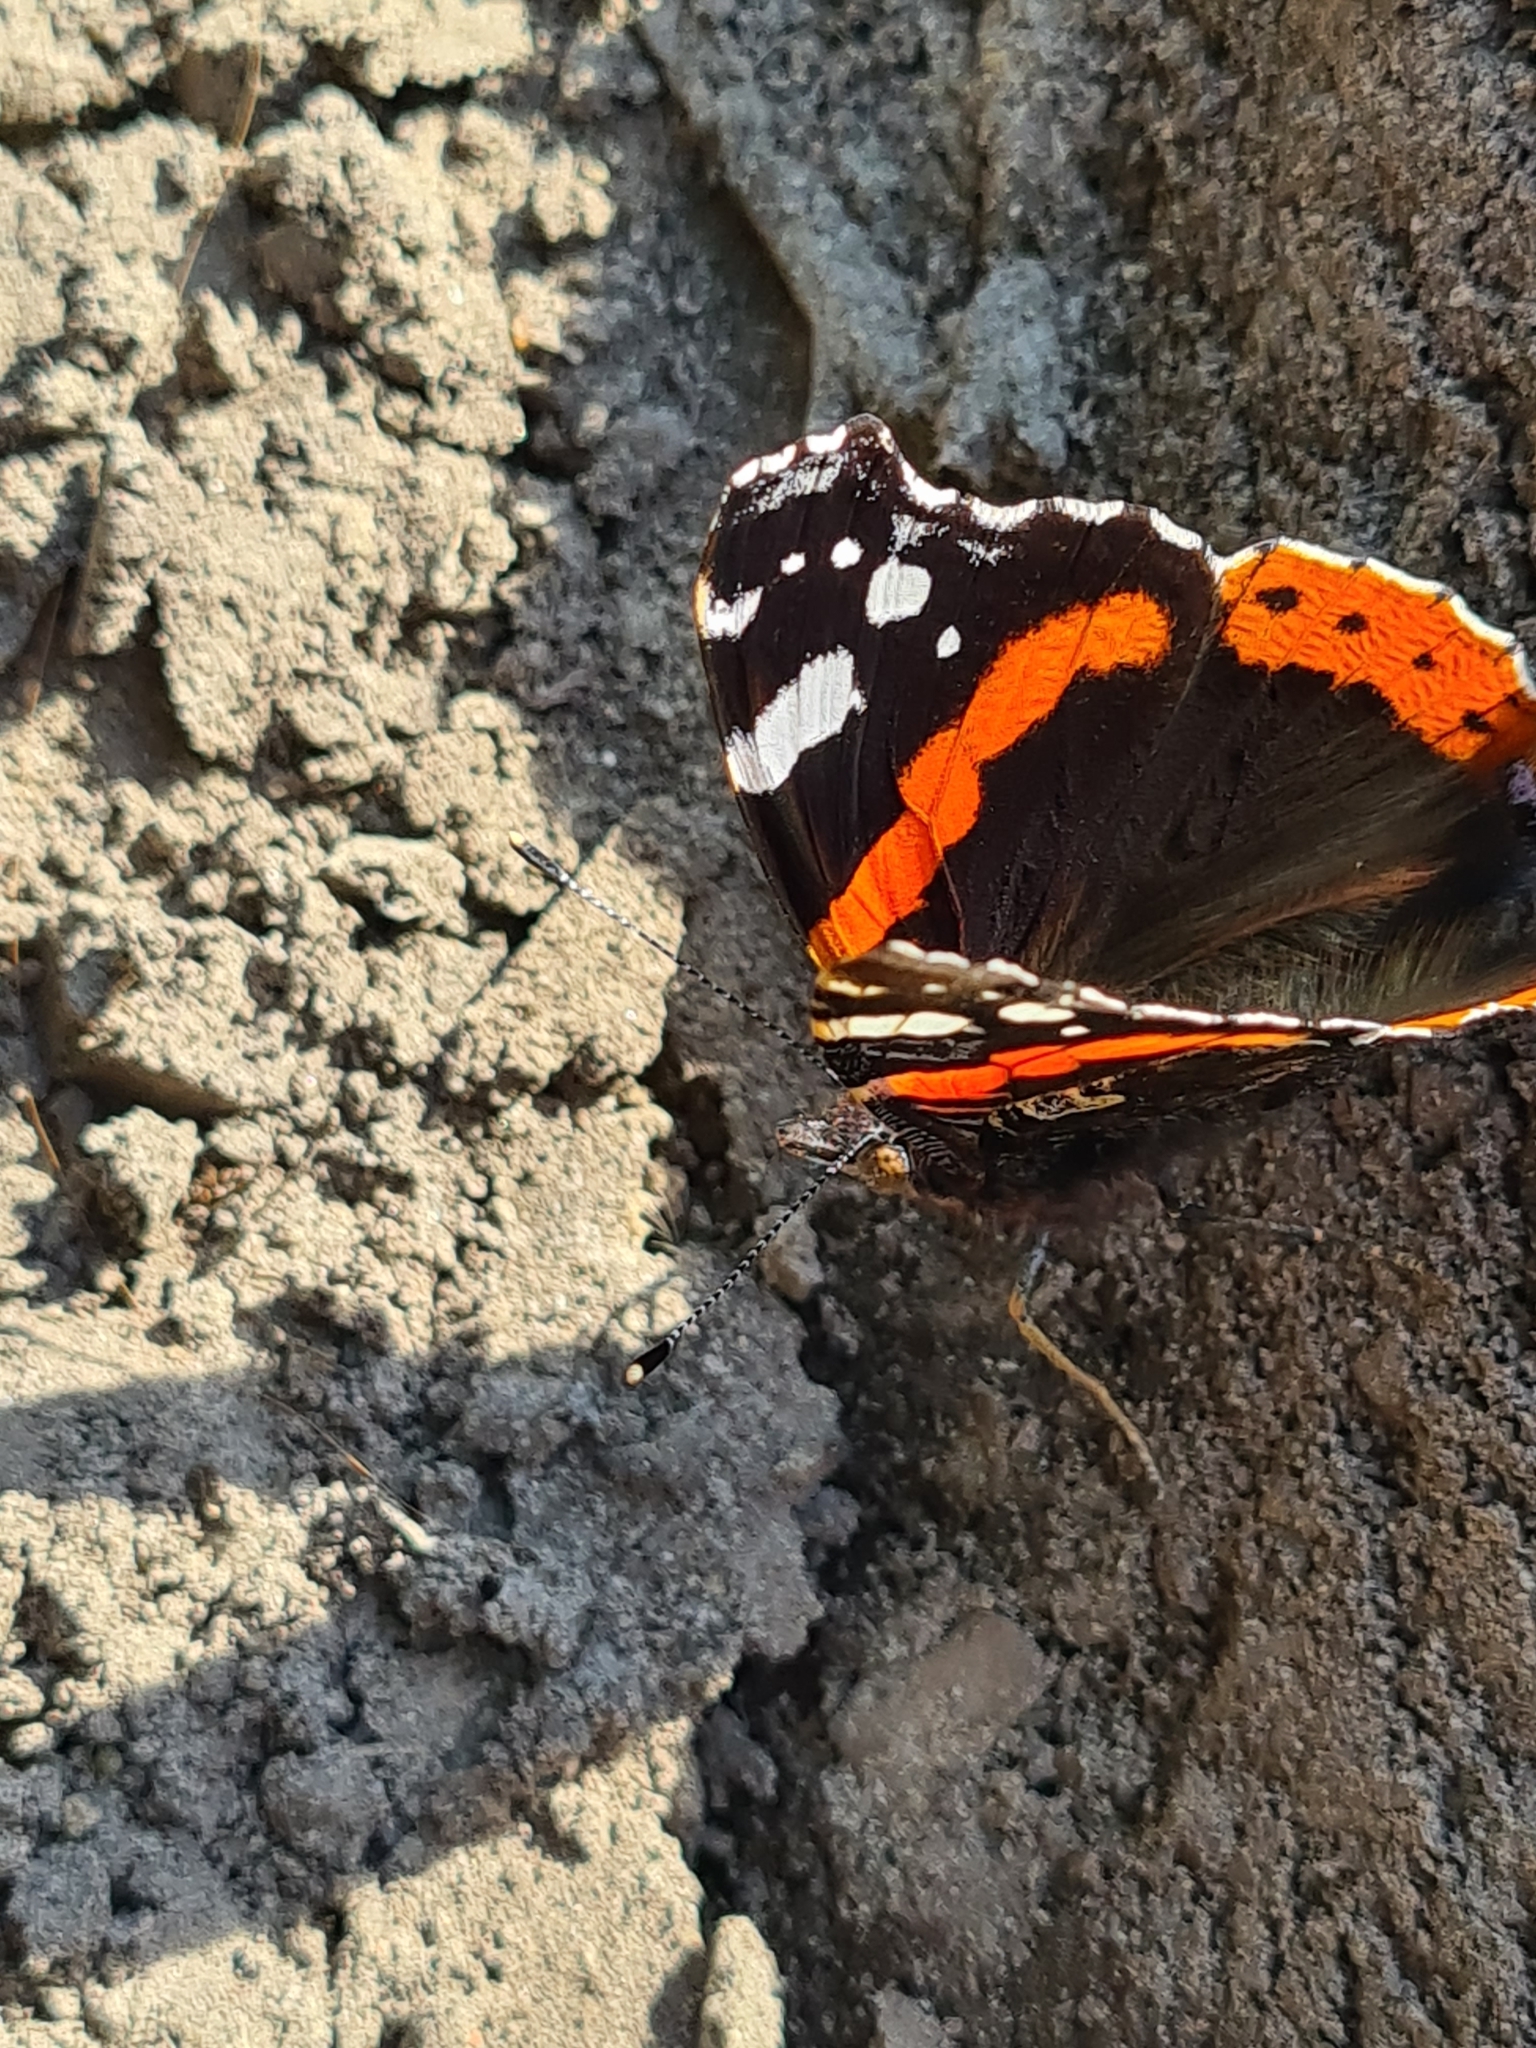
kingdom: Animalia
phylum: Arthropoda
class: Insecta
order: Lepidoptera
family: Nymphalidae
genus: Vanessa
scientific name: Vanessa atalanta
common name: Red admiral
